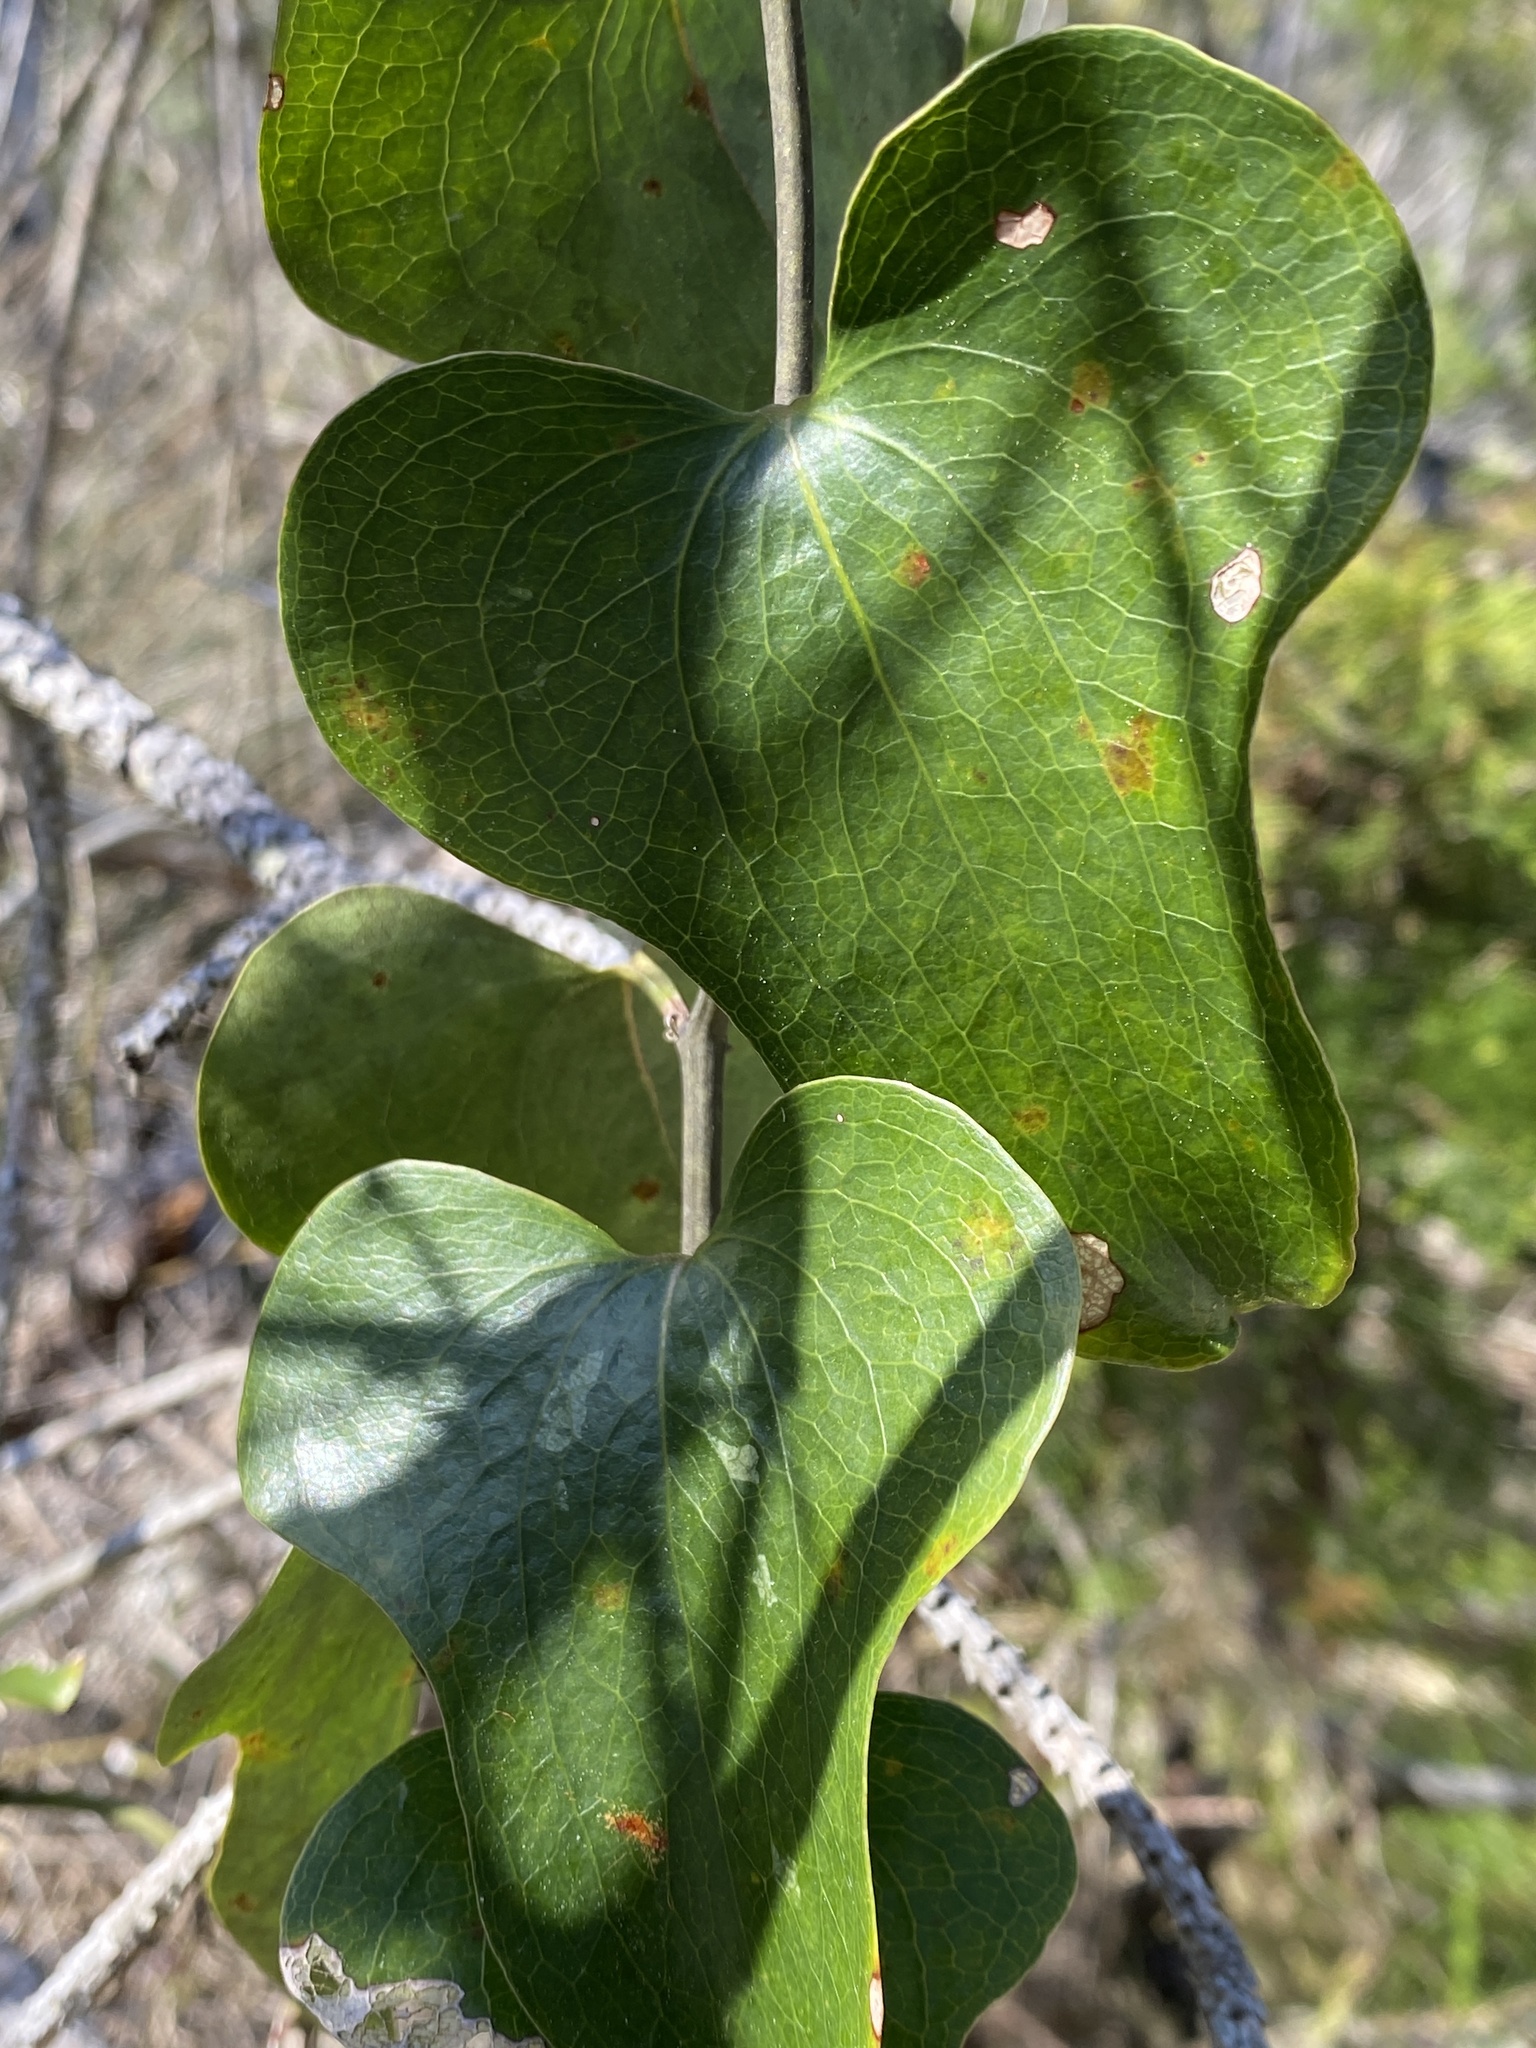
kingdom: Plantae
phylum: Tracheophyta
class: Liliopsida
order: Liliales
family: Smilacaceae
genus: Smilax
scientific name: Smilax bona-nox
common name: Catbrier
